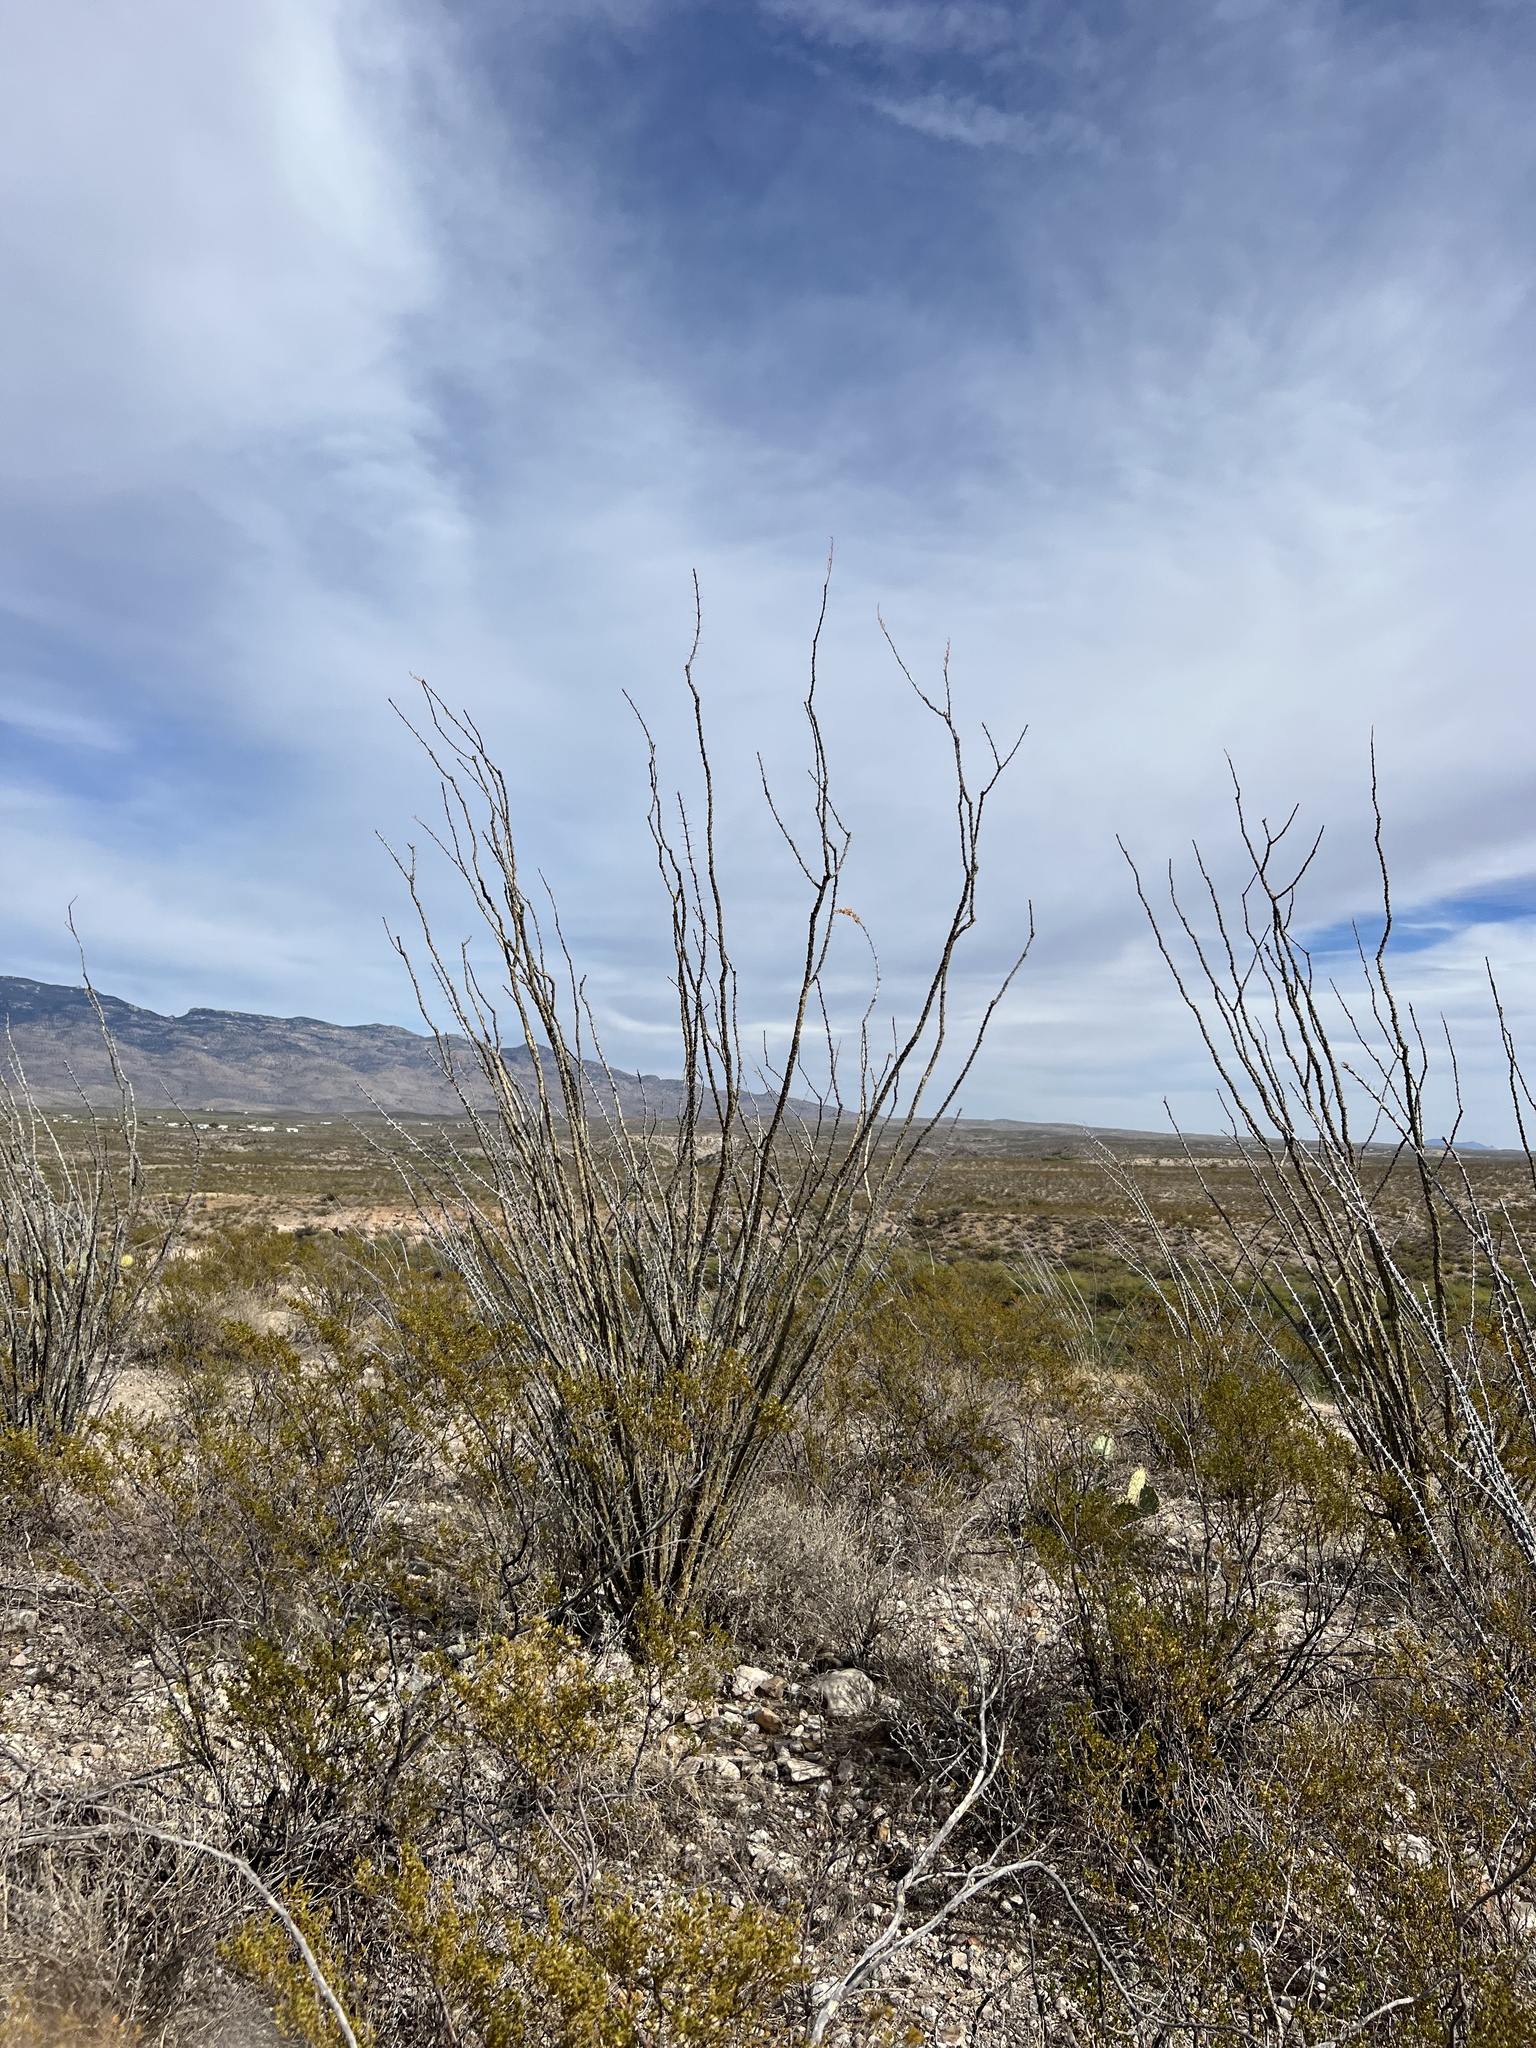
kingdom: Plantae
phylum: Tracheophyta
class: Magnoliopsida
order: Ericales
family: Fouquieriaceae
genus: Fouquieria
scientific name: Fouquieria splendens
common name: Vine-cactus
